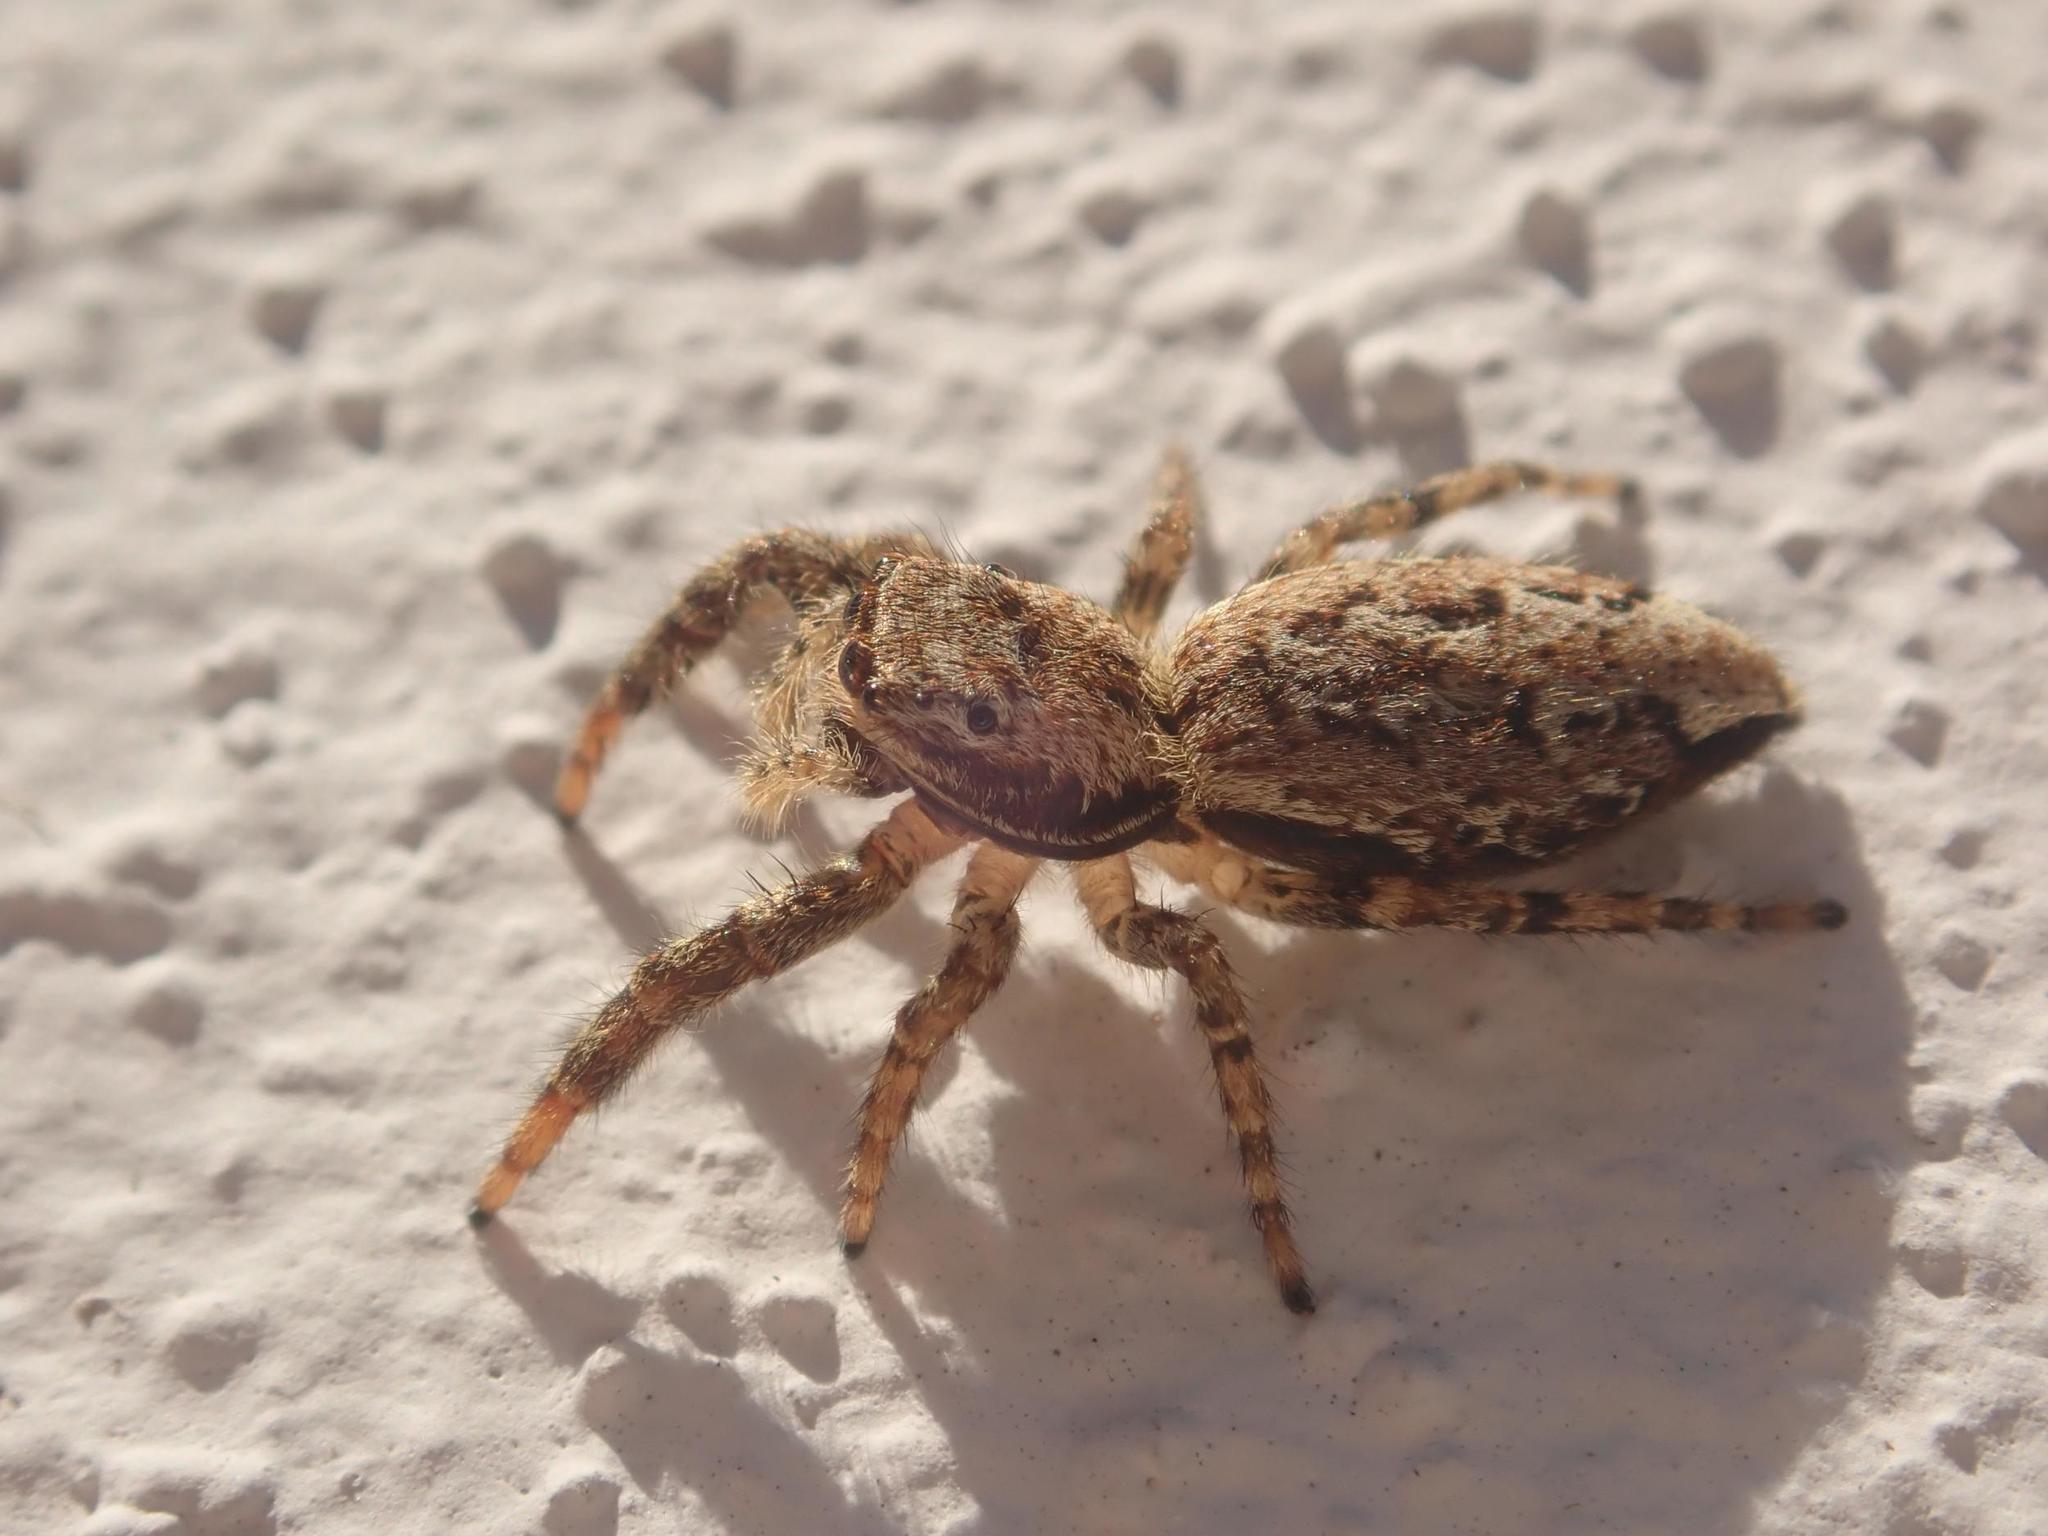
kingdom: Animalia
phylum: Arthropoda
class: Arachnida
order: Araneae
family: Salticidae
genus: Marpissa
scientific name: Marpissa muscosa
